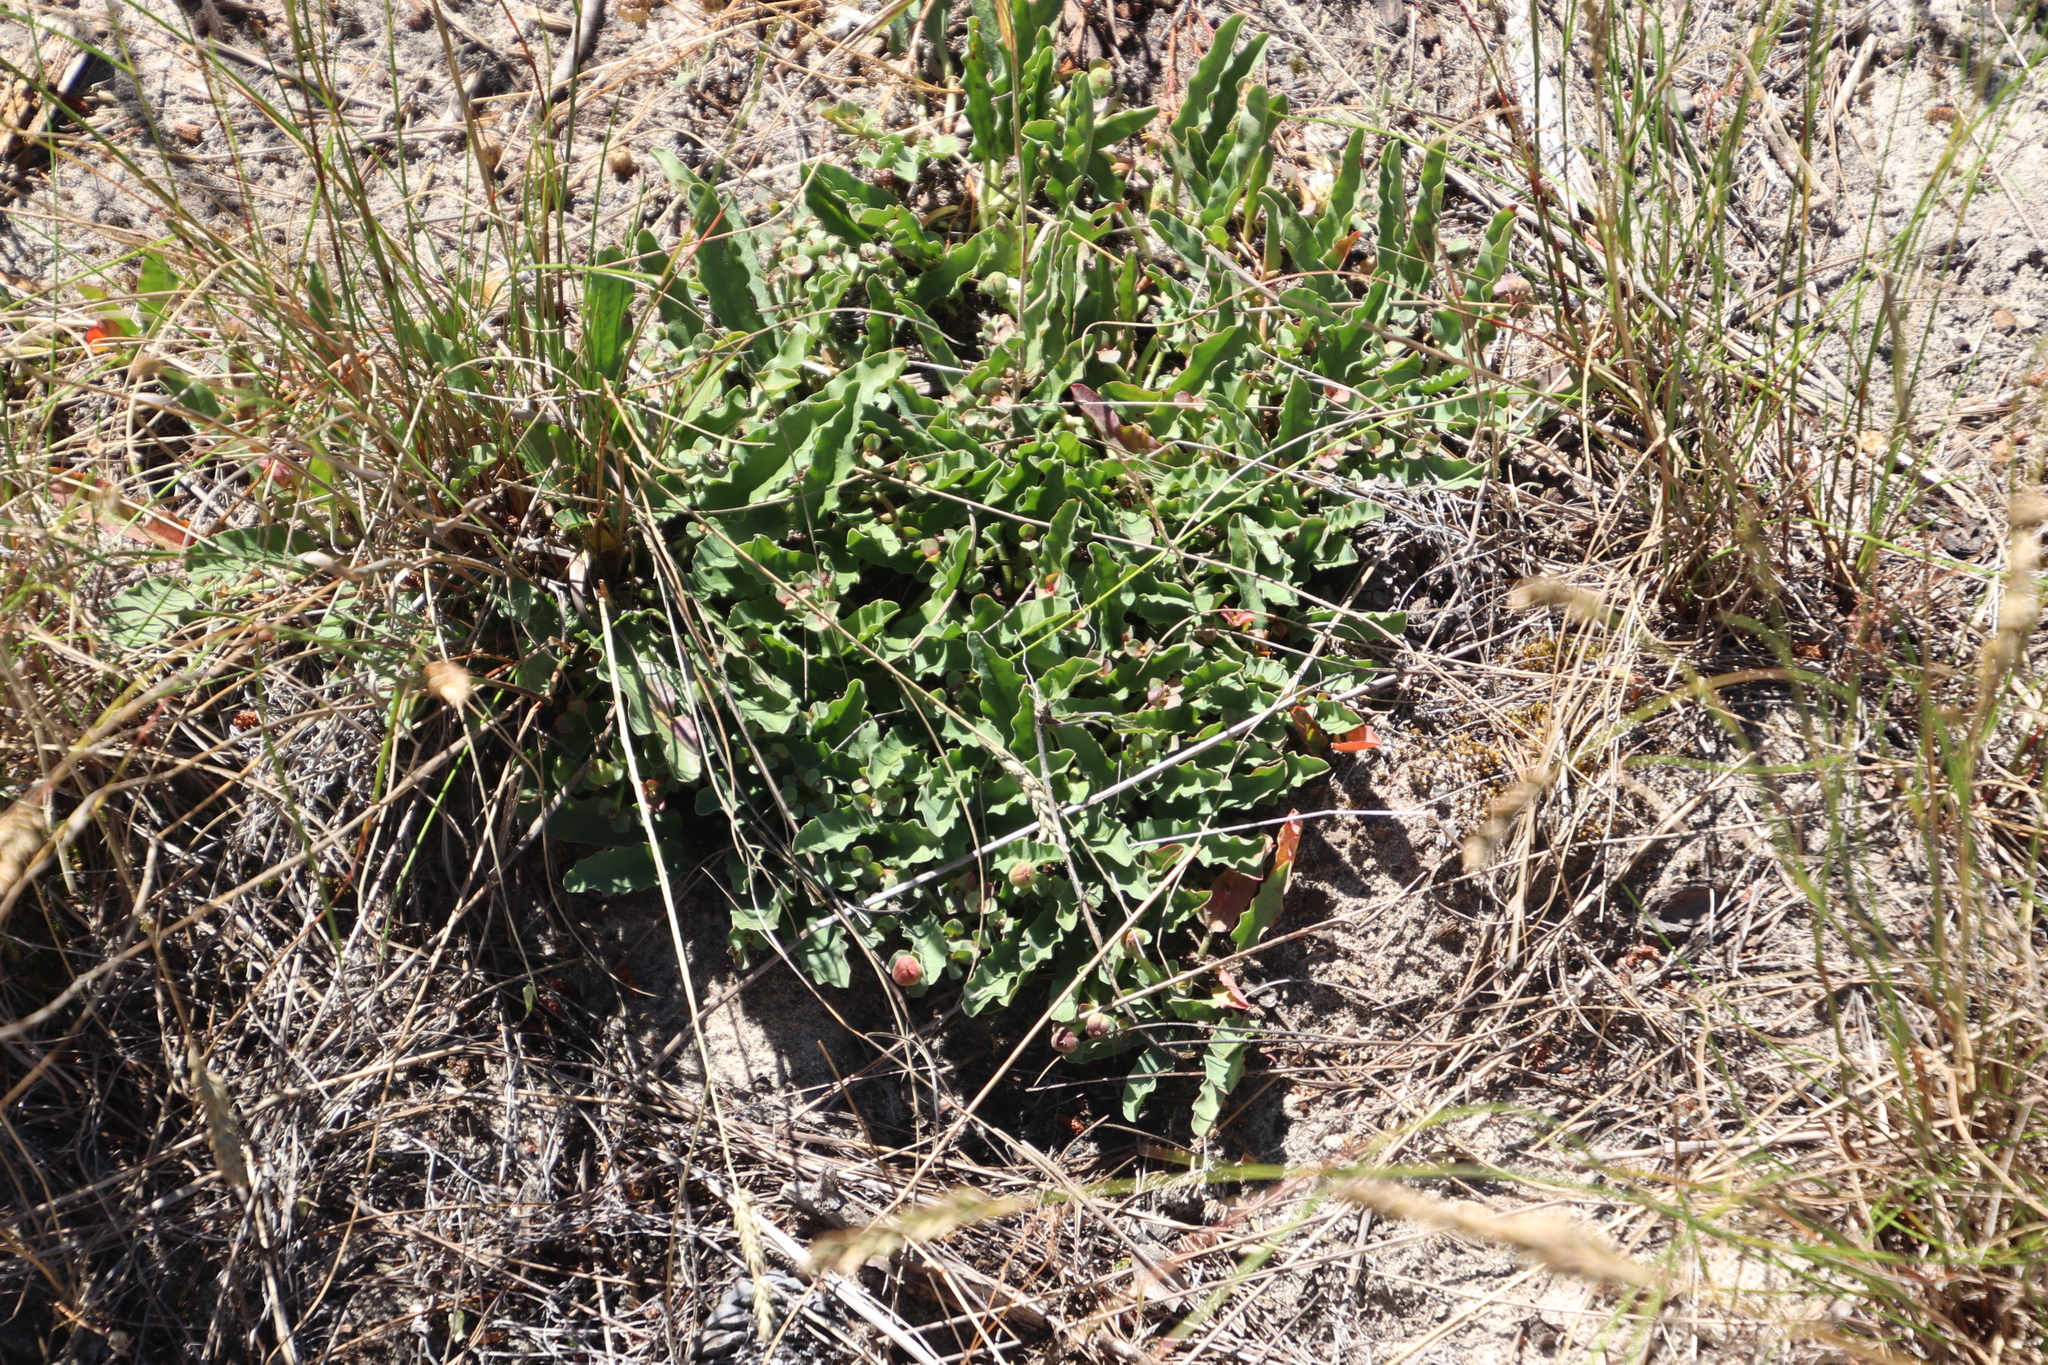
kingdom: Plantae
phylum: Tracheophyta
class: Magnoliopsida
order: Malpighiales
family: Euphorbiaceae
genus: Euphorbia
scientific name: Euphorbia tuberosa
